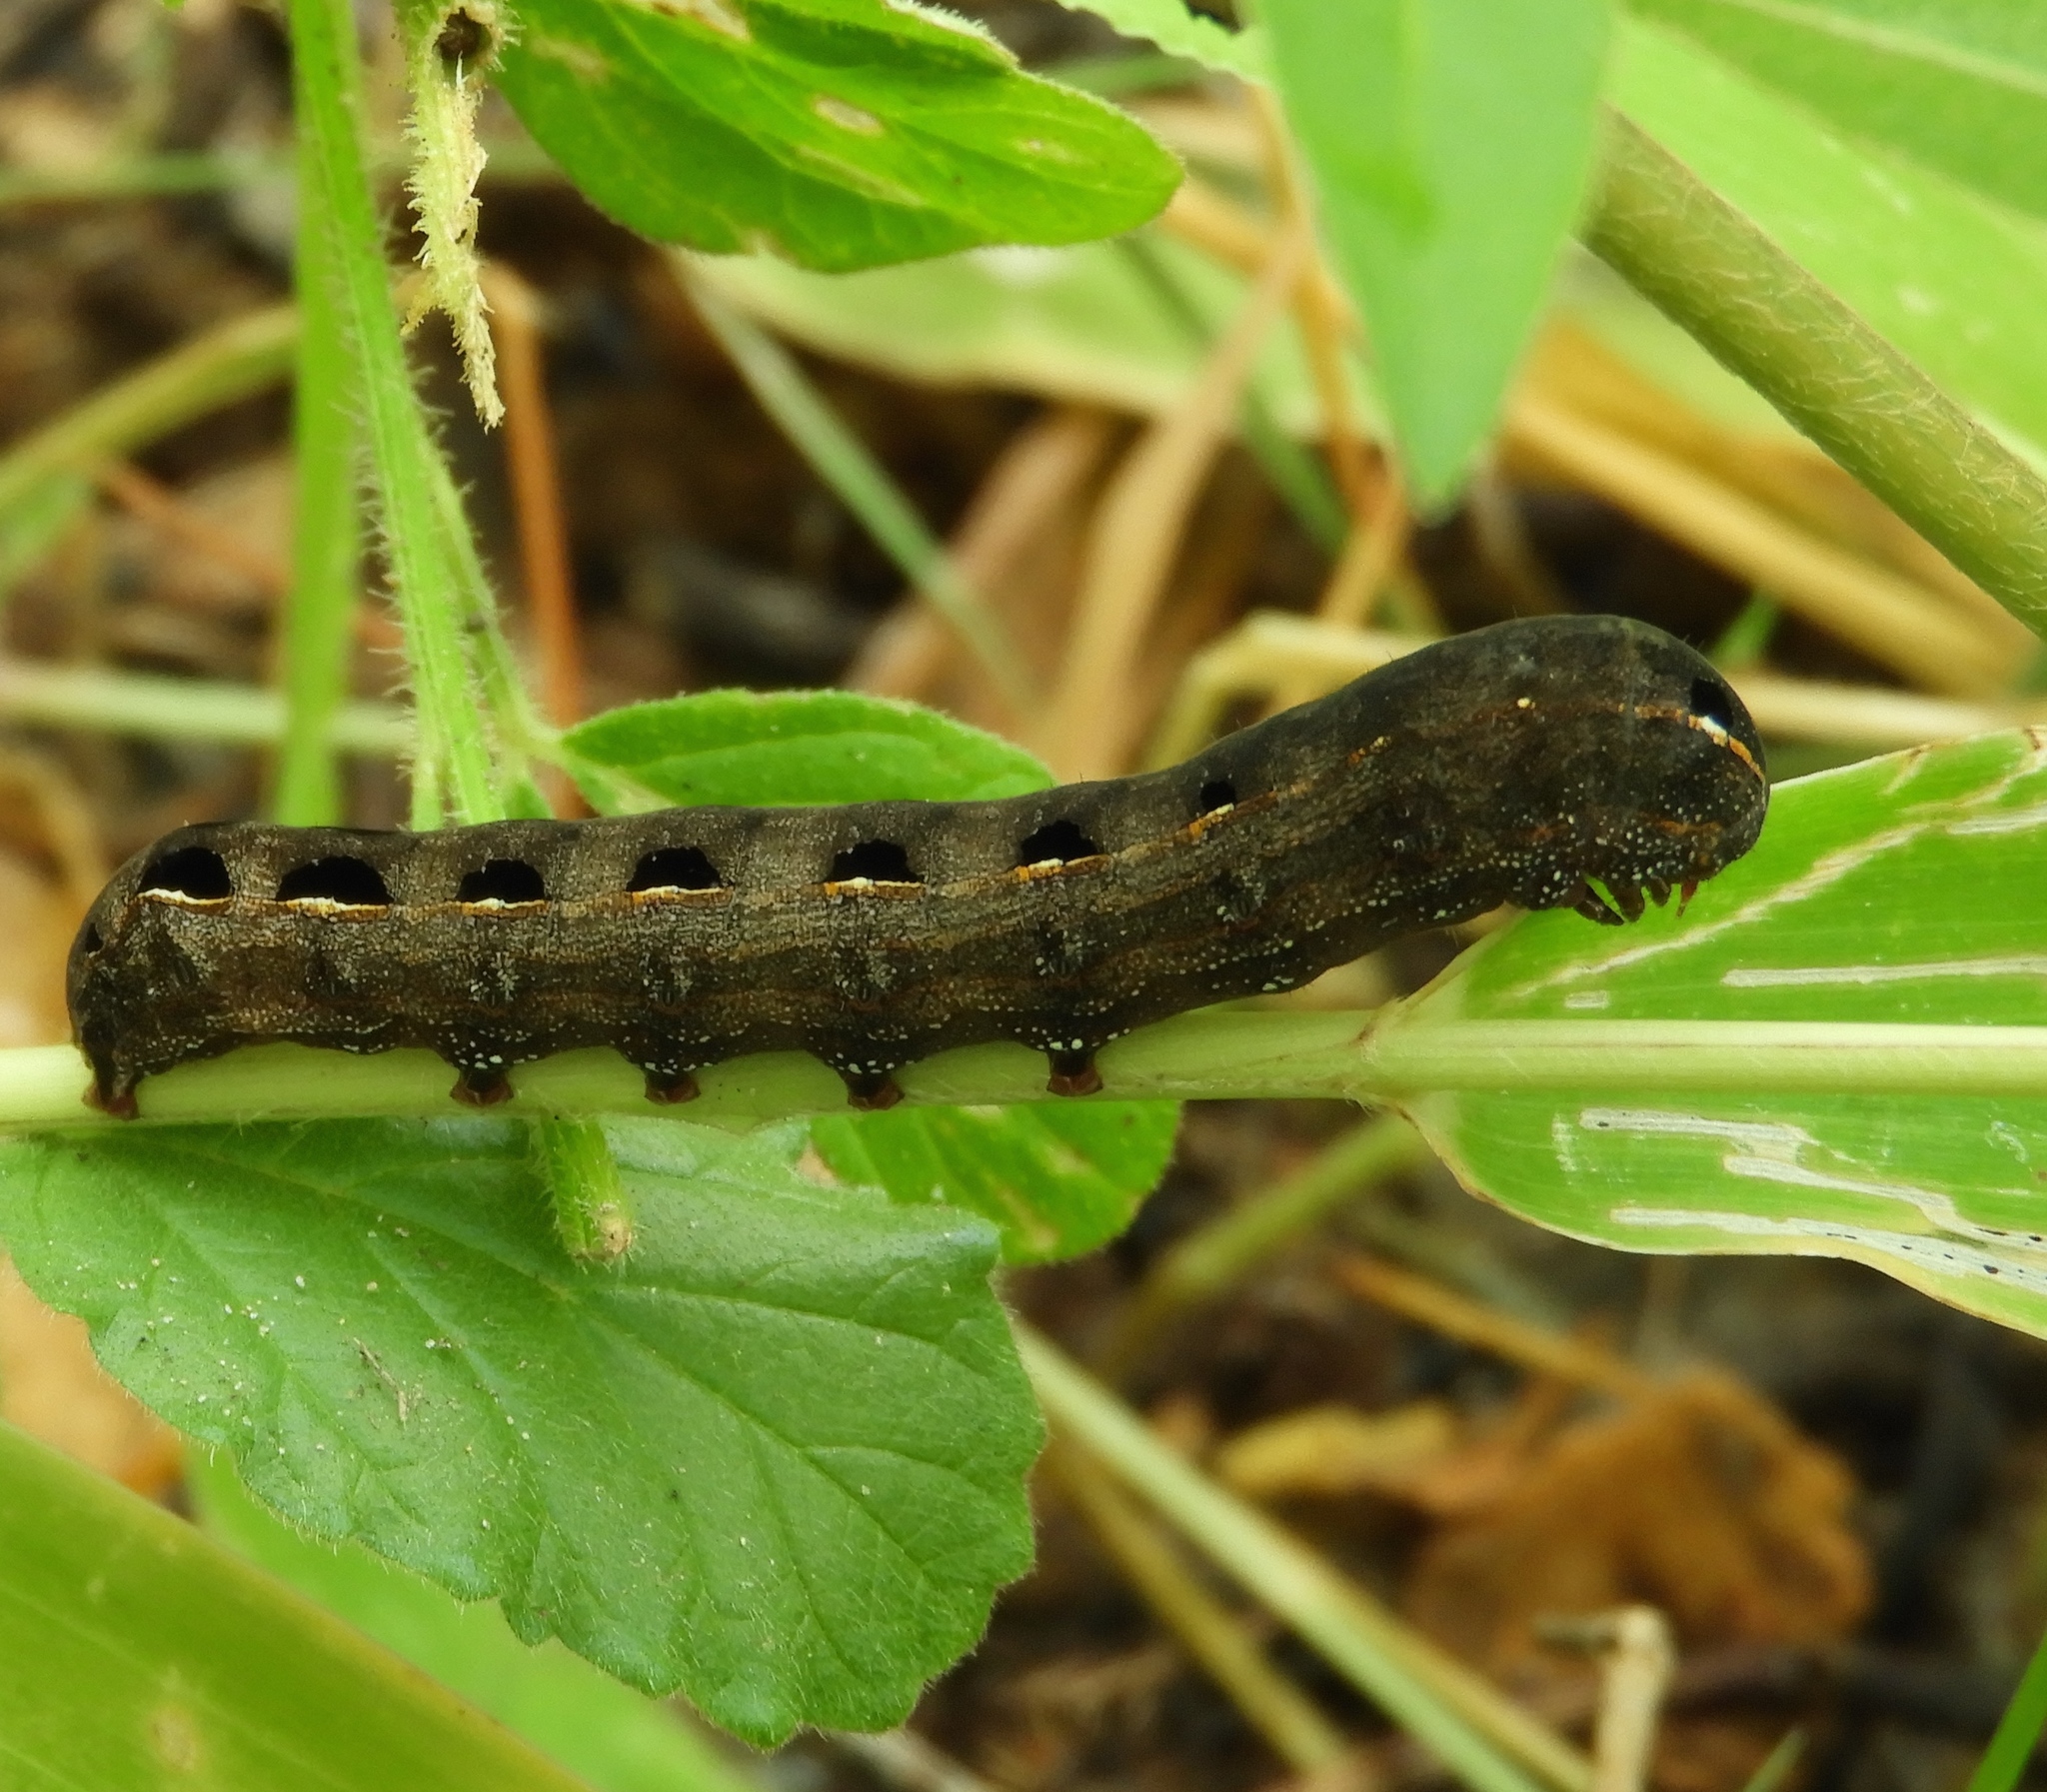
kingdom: Animalia
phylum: Arthropoda
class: Insecta
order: Lepidoptera
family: Noctuidae
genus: Spodoptera
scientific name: Spodoptera
